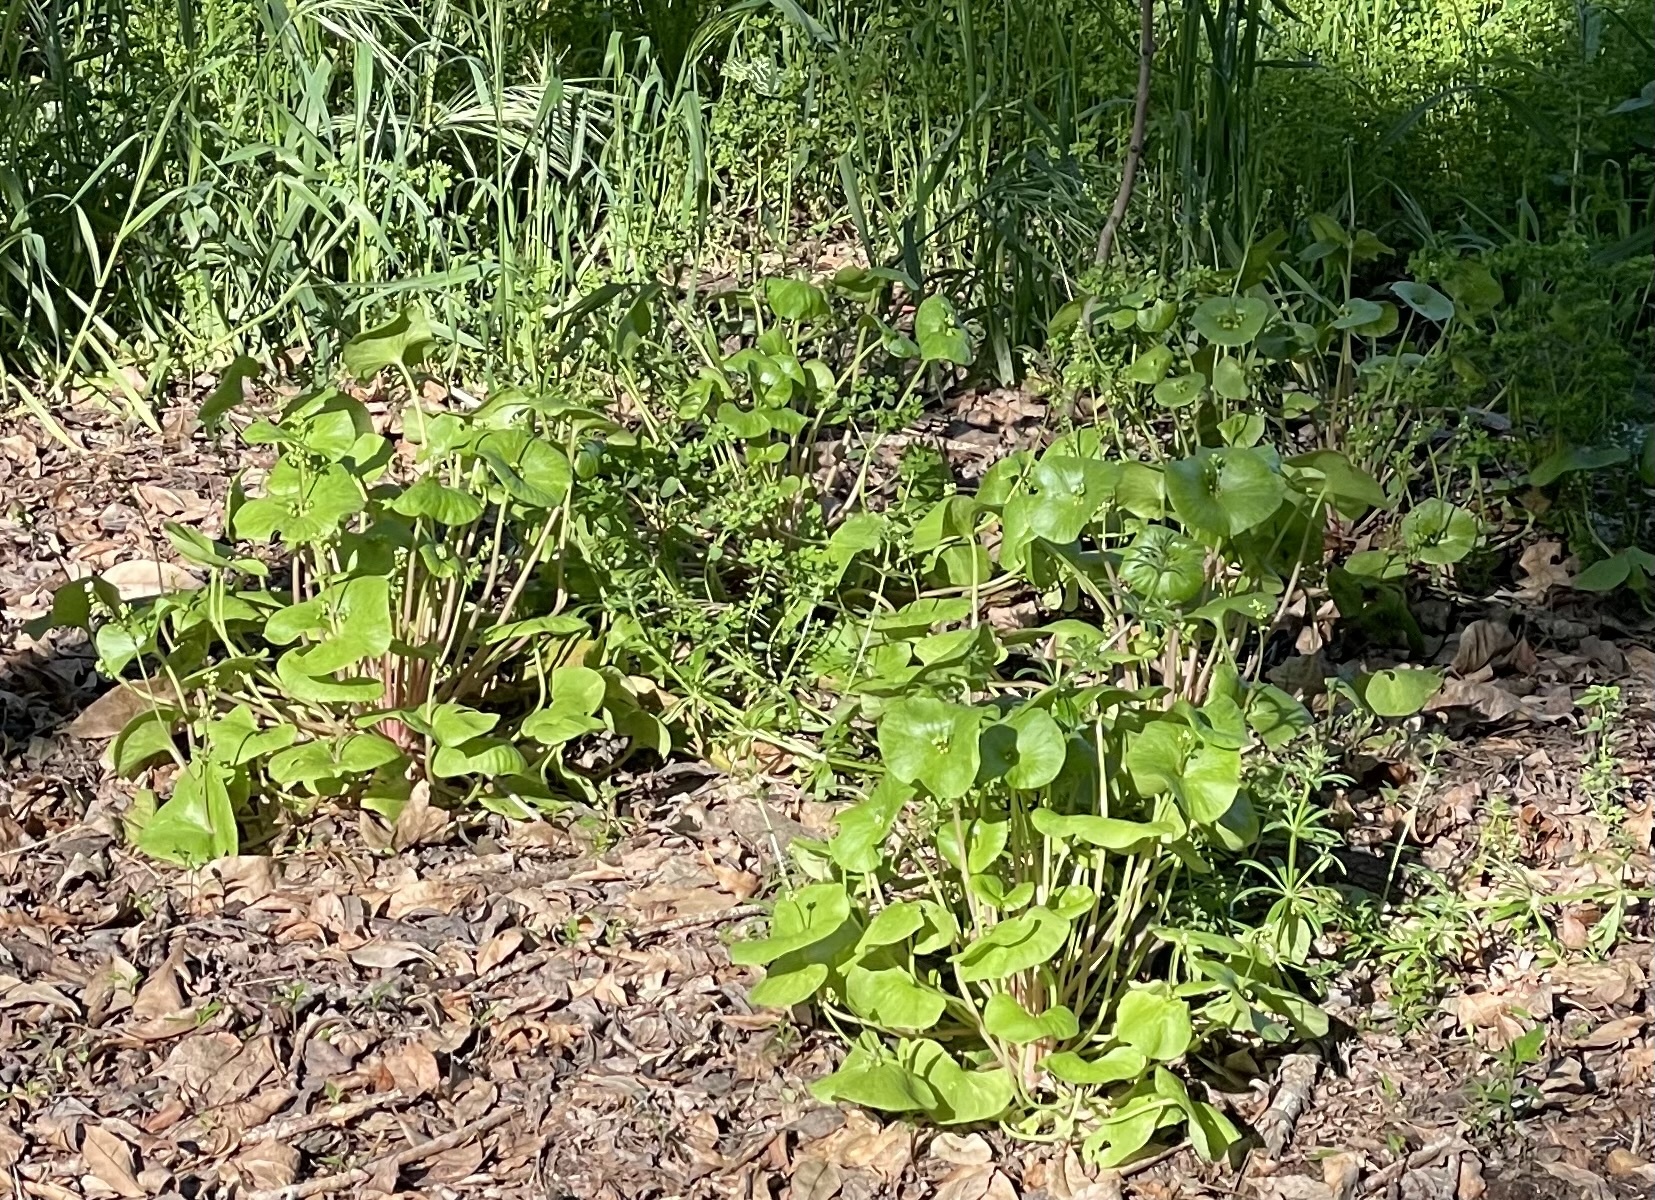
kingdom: Plantae
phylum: Tracheophyta
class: Magnoliopsida
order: Caryophyllales
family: Montiaceae
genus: Claytonia
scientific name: Claytonia perfoliata
